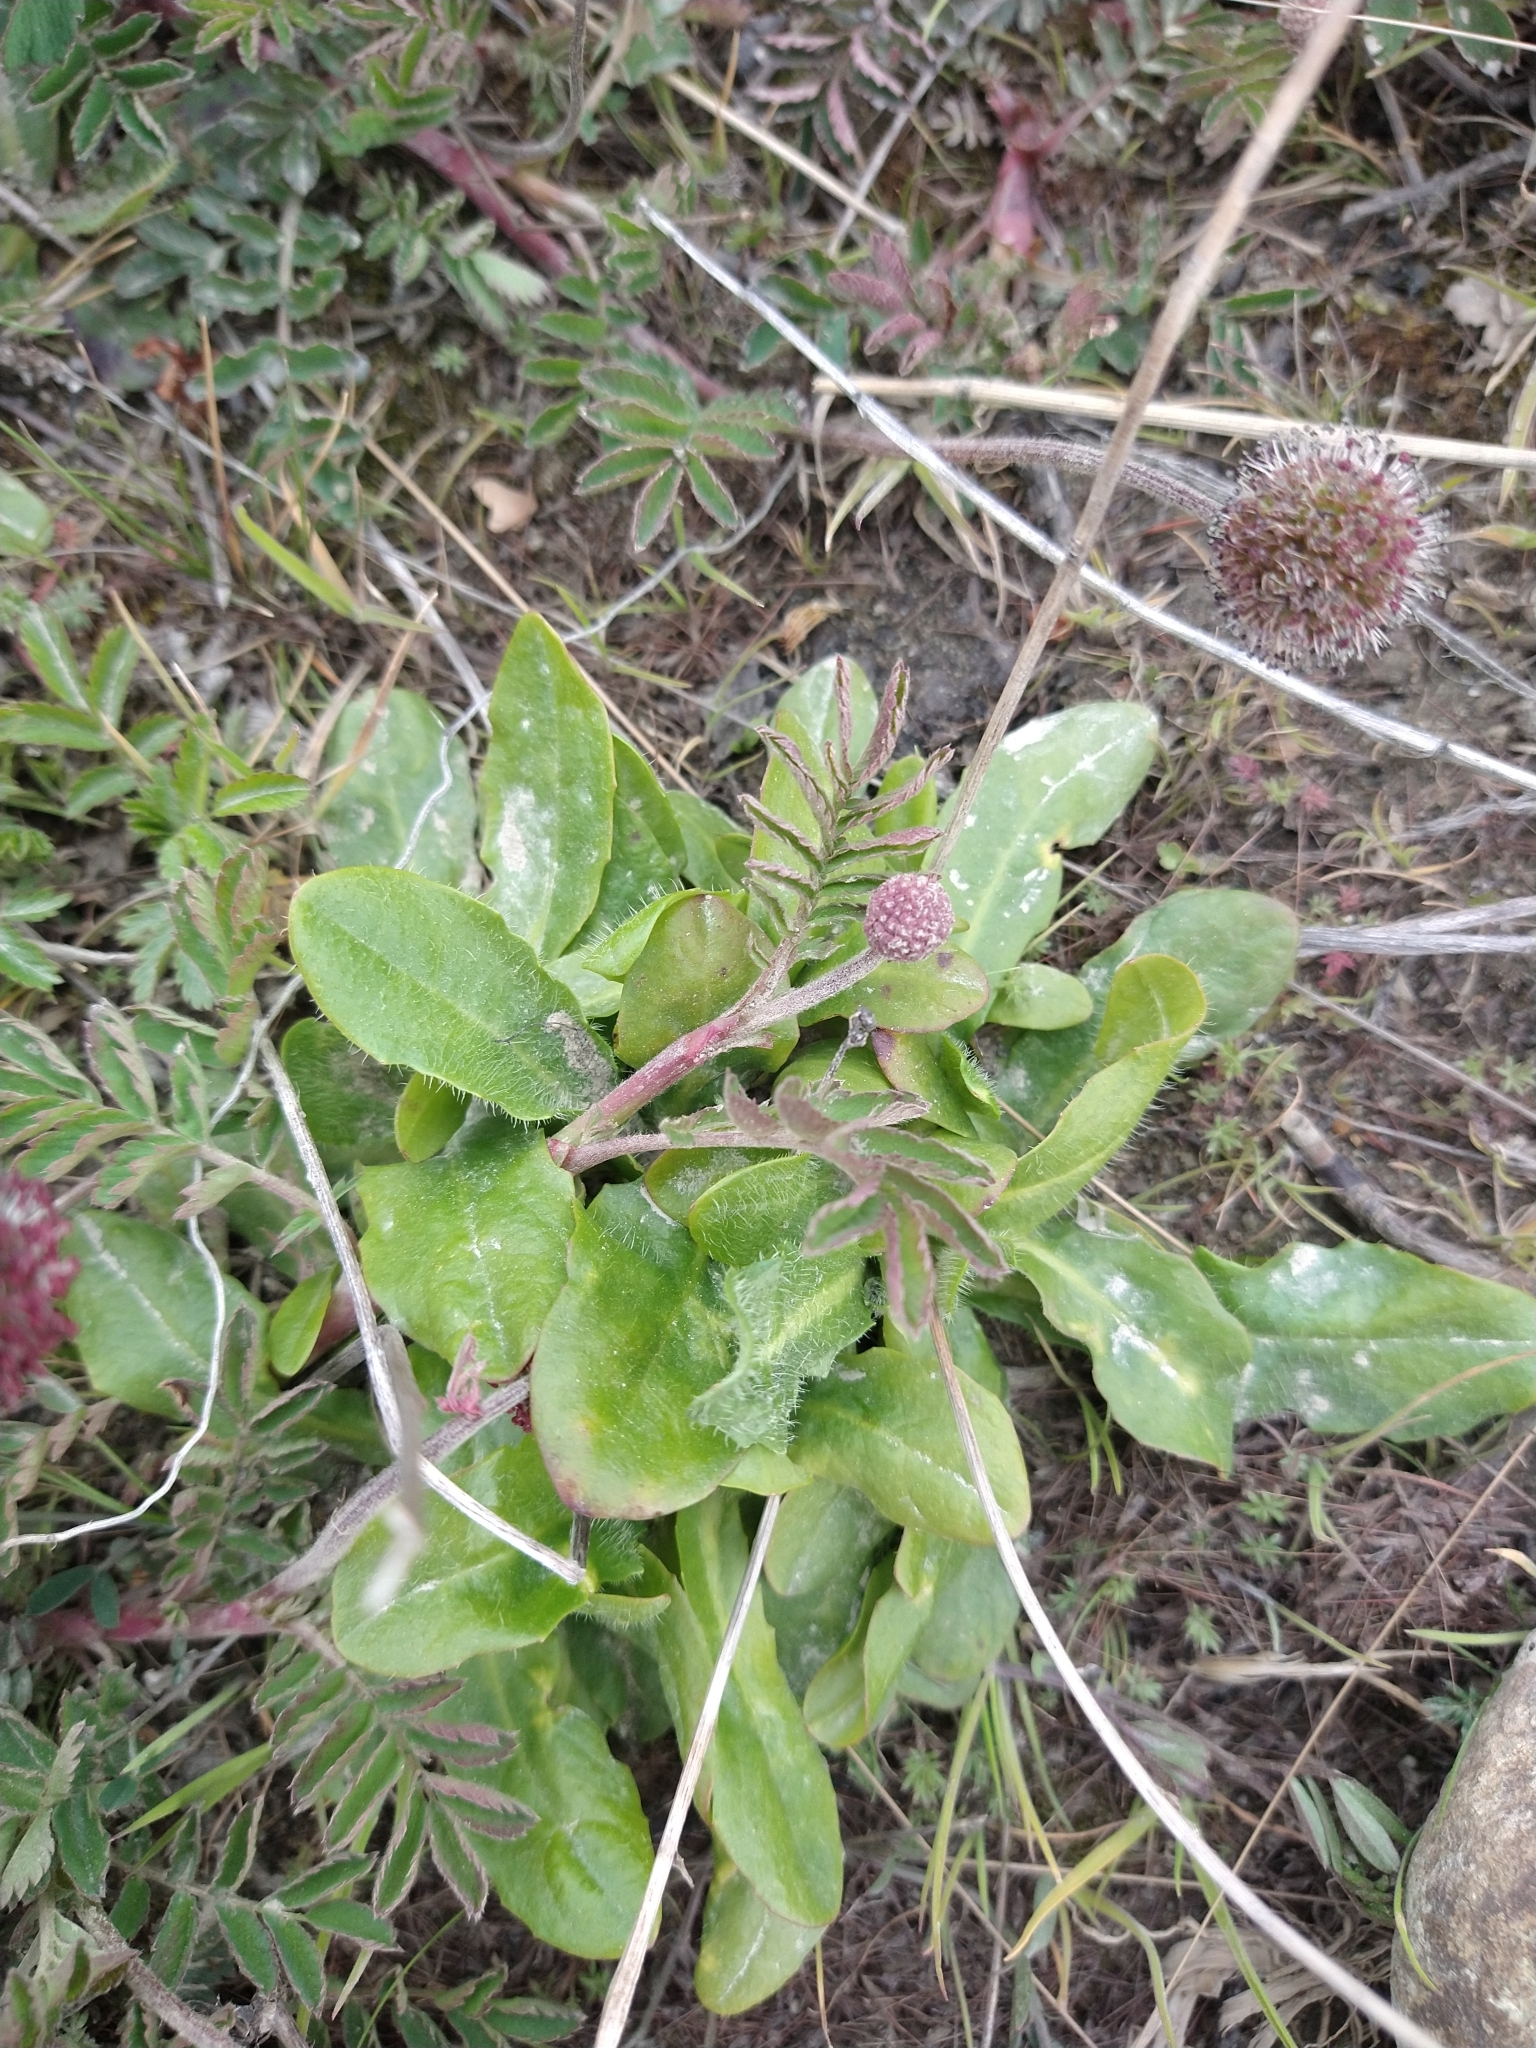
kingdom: Plantae
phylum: Tracheophyta
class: Magnoliopsida
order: Asterales
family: Asteraceae
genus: Hypochaeris
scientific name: Hypochaeris radicata
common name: Flatweed
